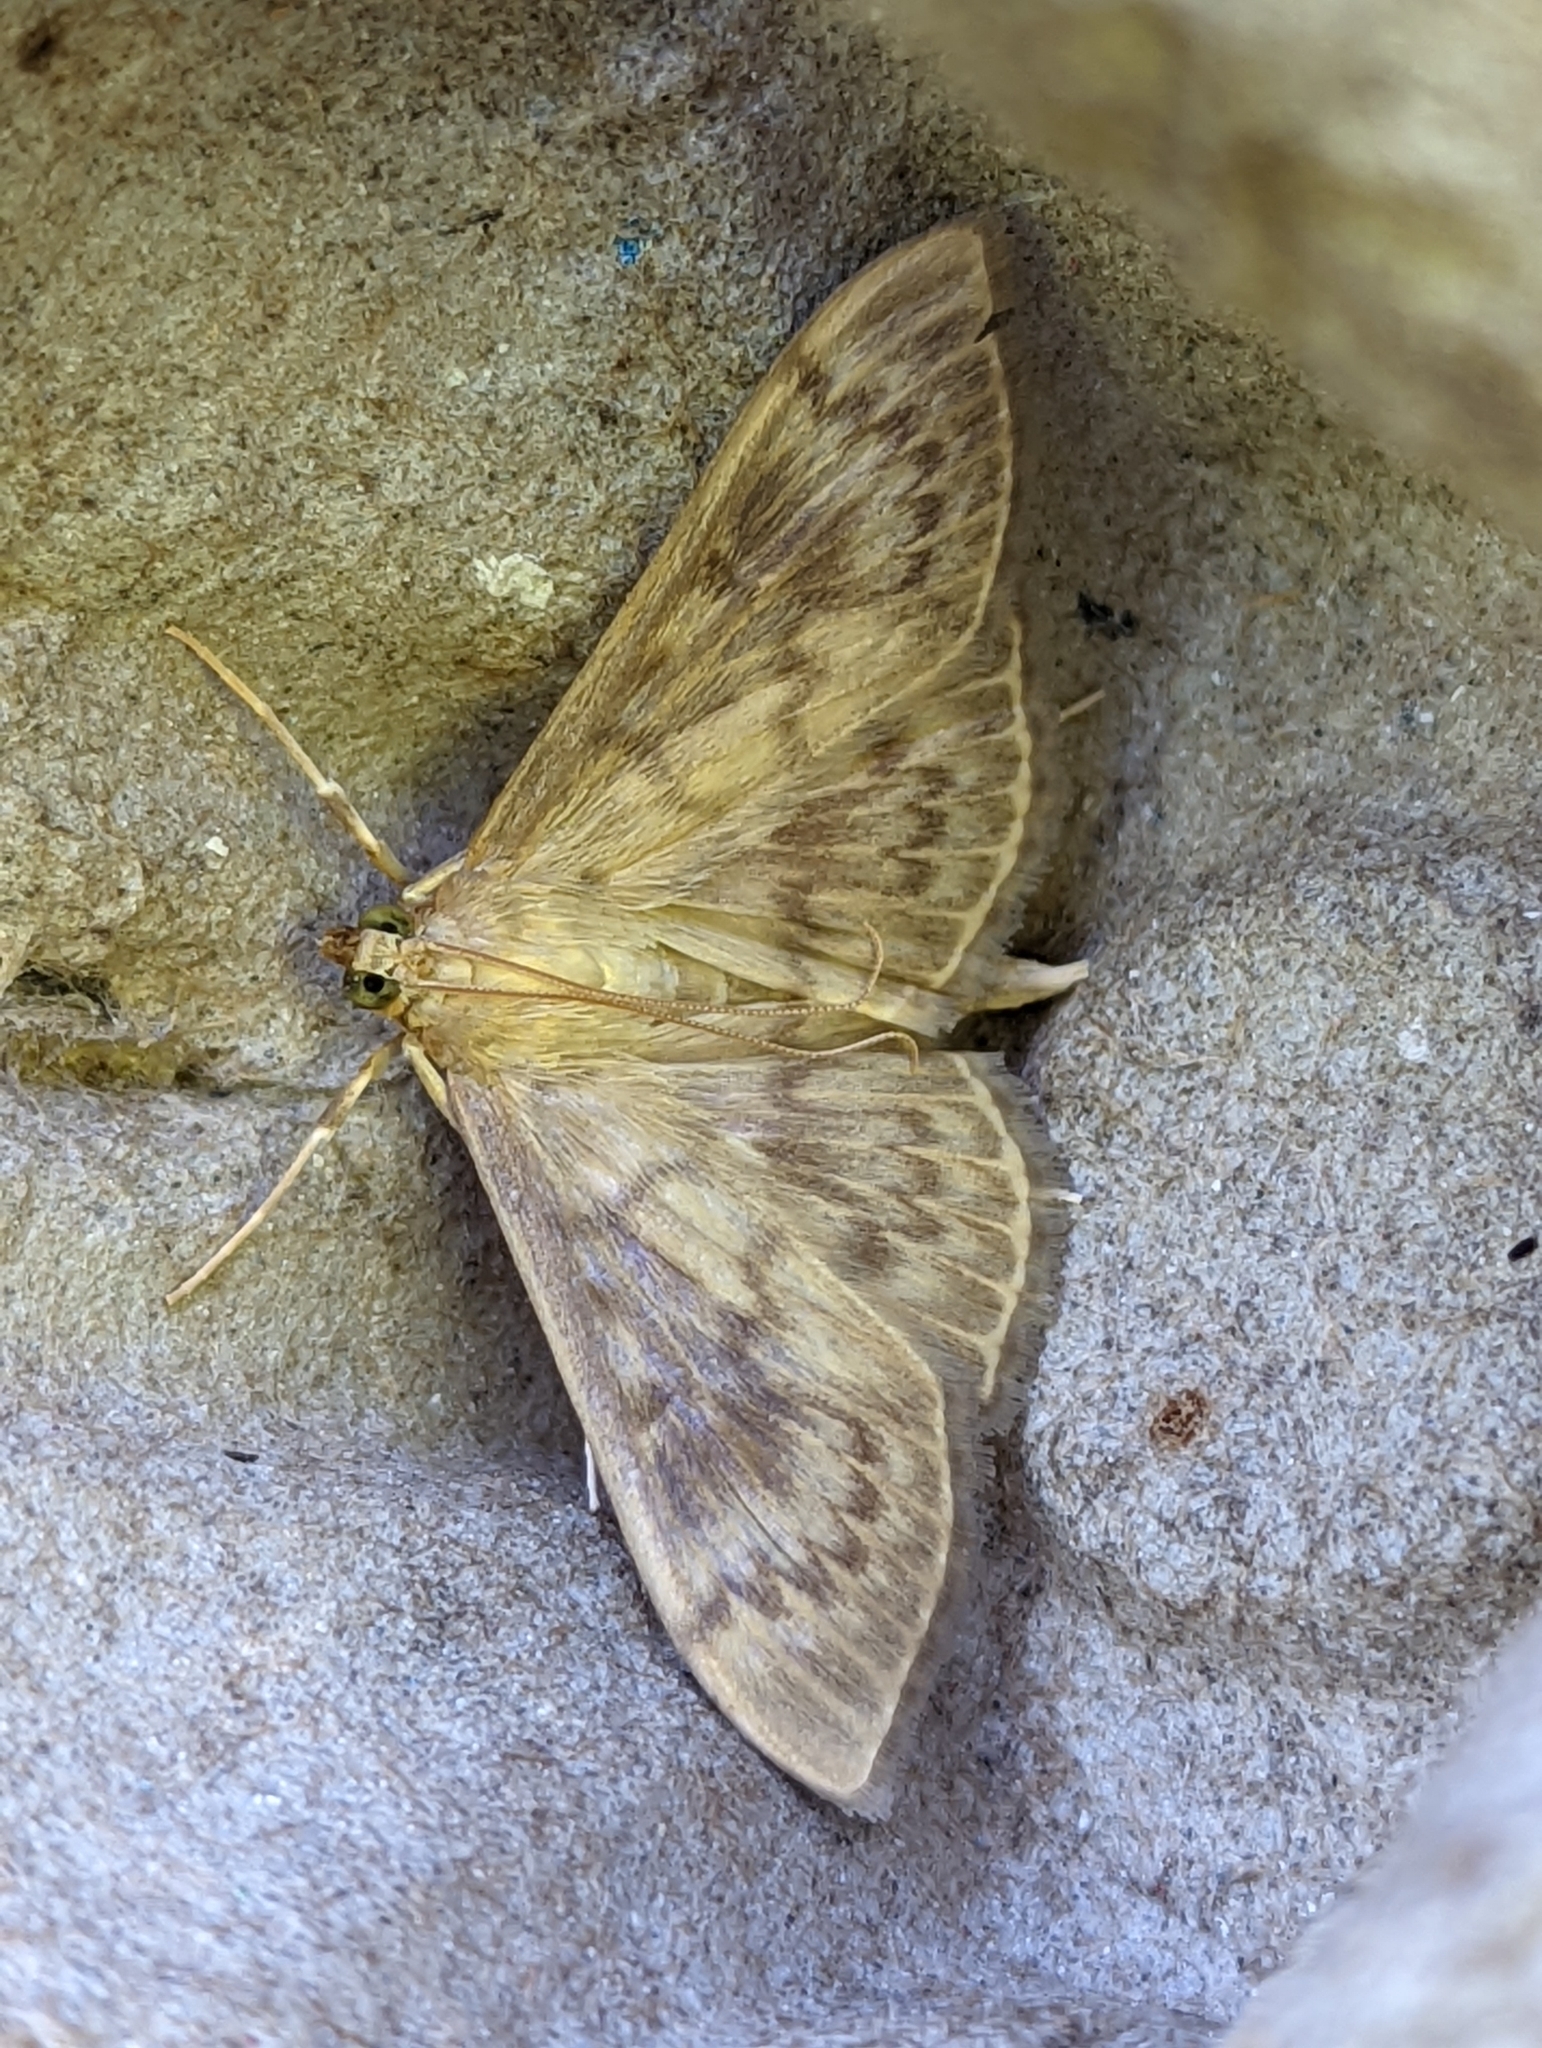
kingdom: Animalia
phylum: Arthropoda
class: Insecta
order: Lepidoptera
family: Crambidae
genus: Patania
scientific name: Patania ruralis
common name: Mother of pearl
